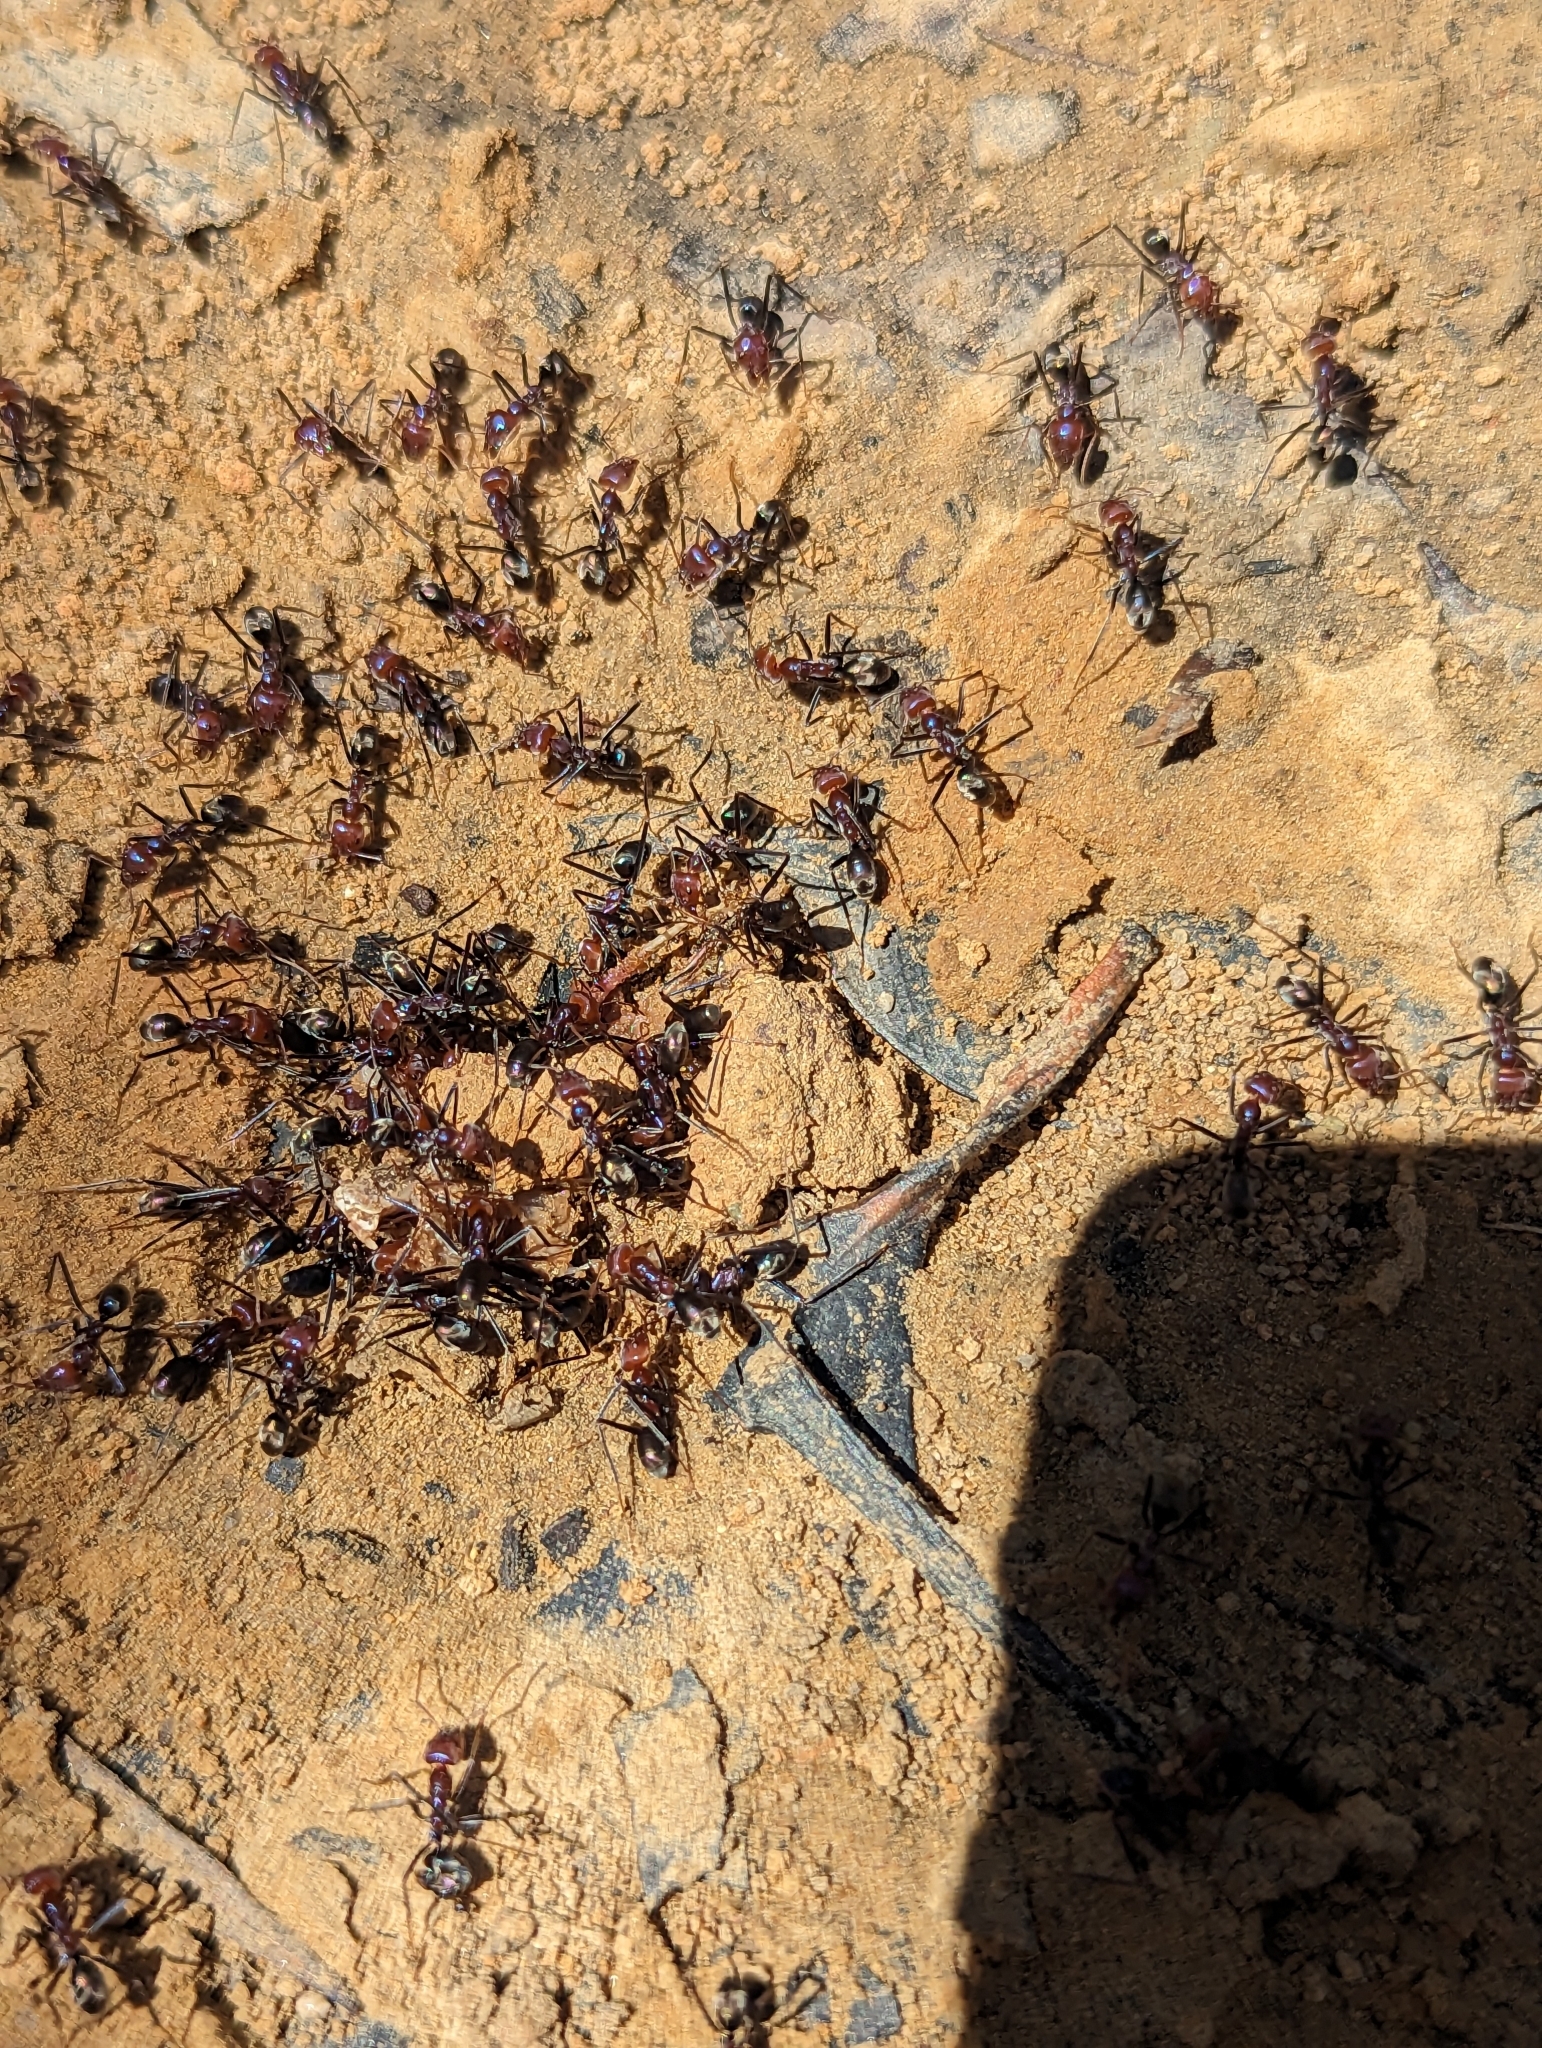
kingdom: Animalia
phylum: Arthropoda
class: Insecta
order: Hymenoptera
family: Formicidae
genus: Iridomyrmex
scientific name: Iridomyrmex purpureus
